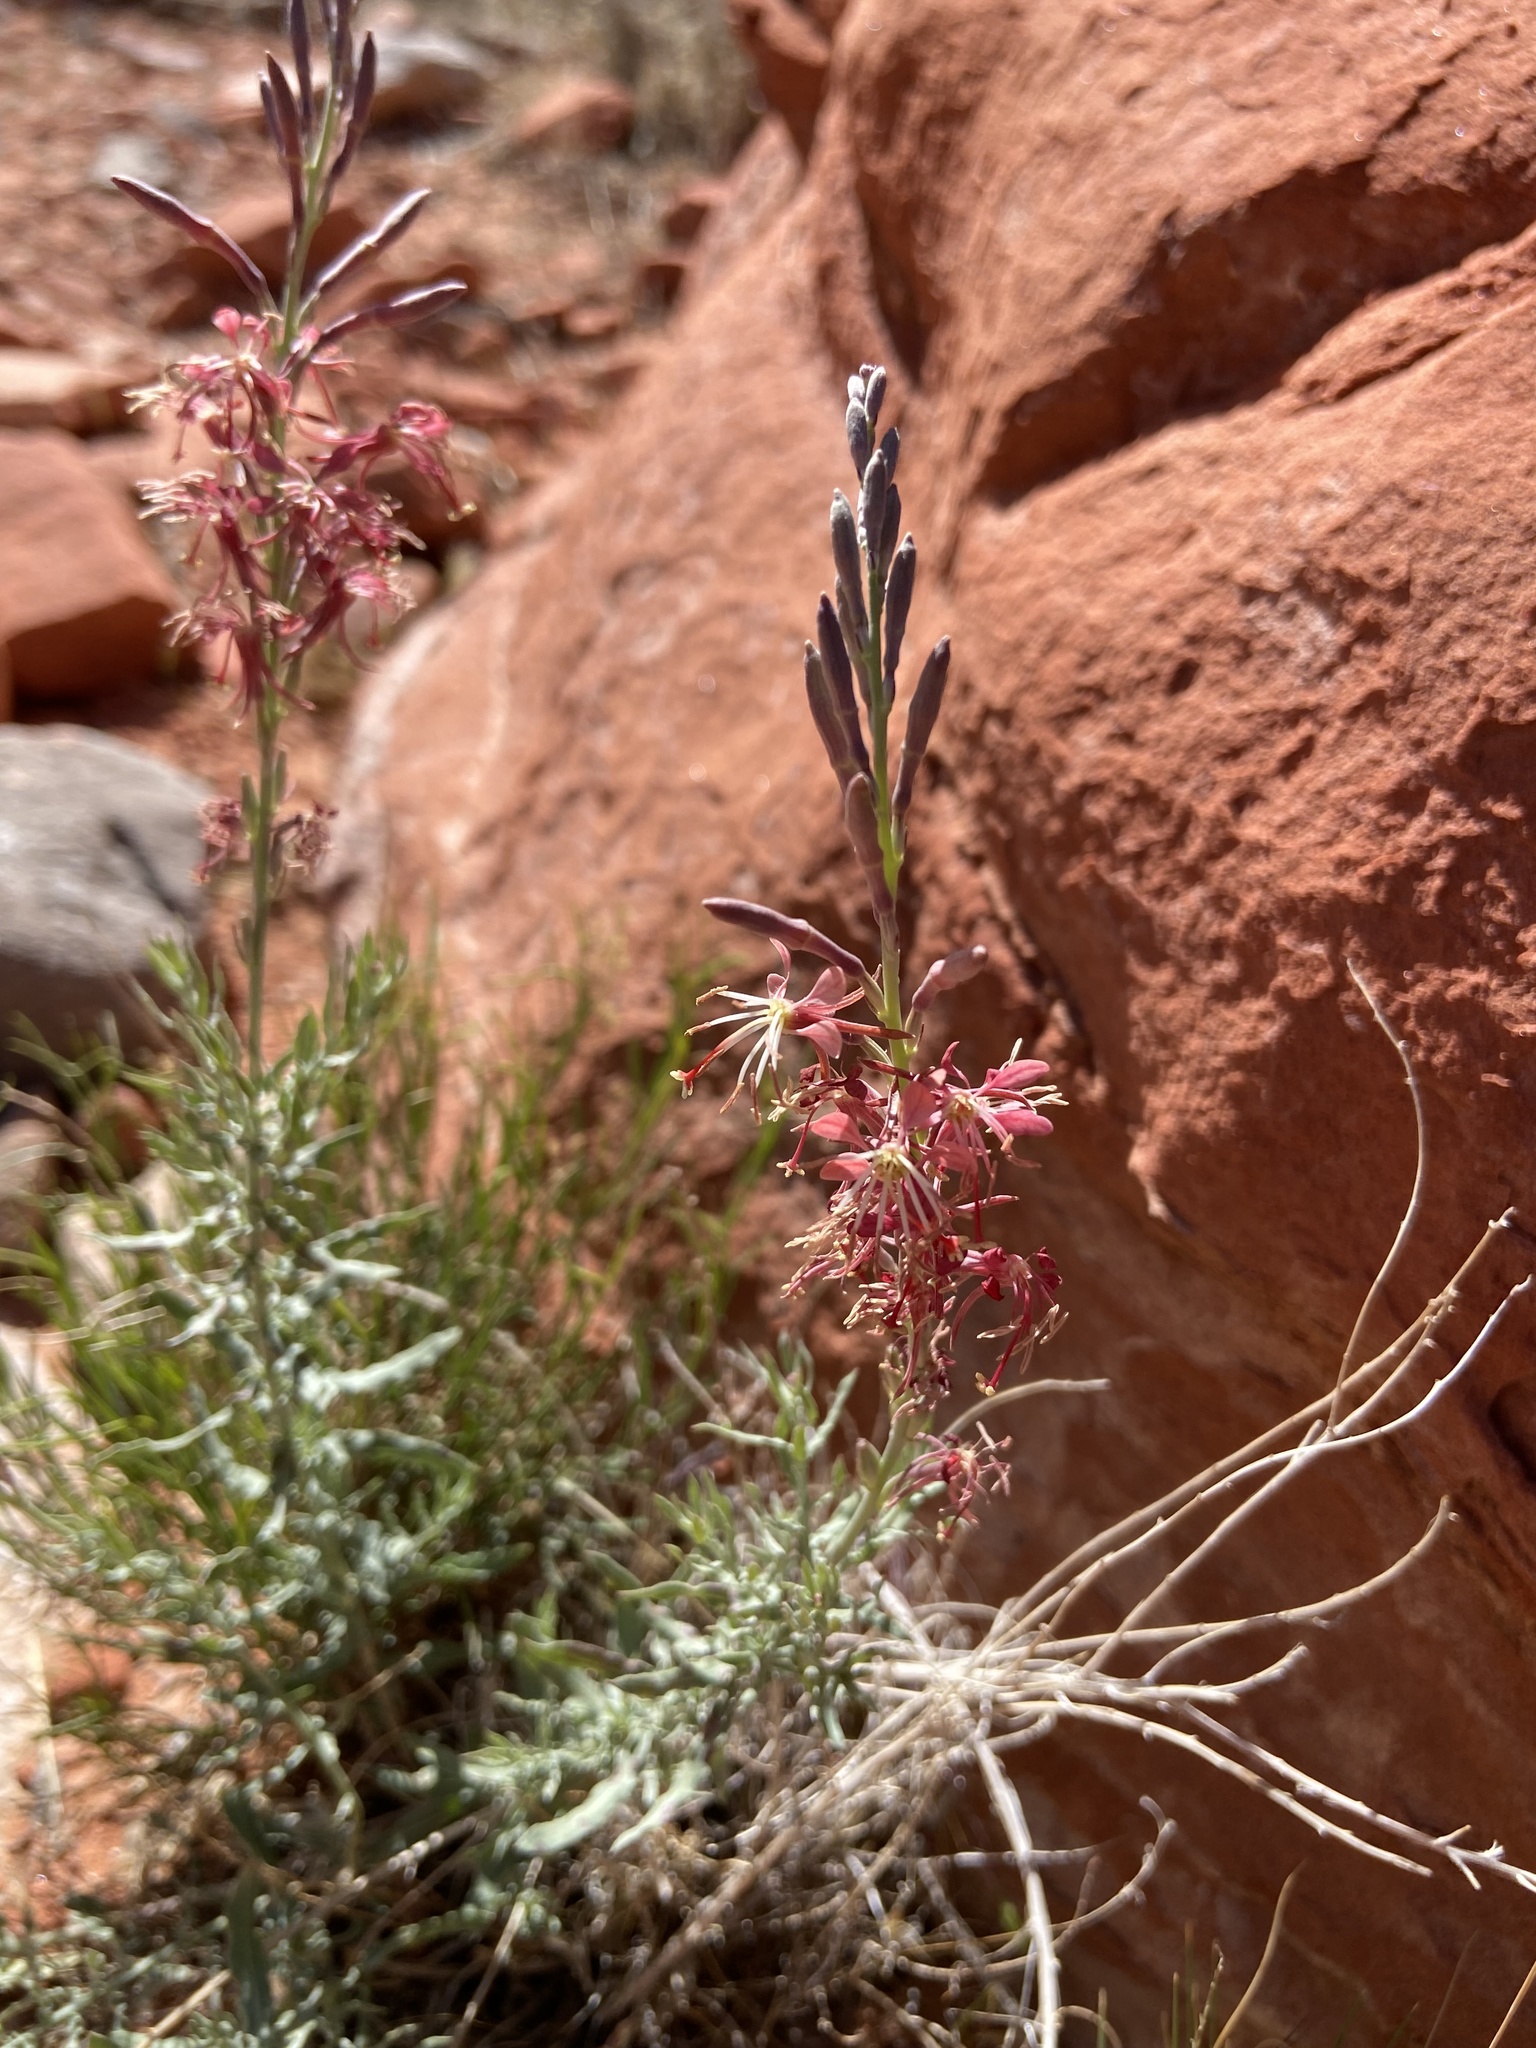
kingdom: Plantae
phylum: Tracheophyta
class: Magnoliopsida
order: Myrtales
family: Onagraceae
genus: Oenothera
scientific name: Oenothera suffrutescens
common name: Scarlet beeblossom
